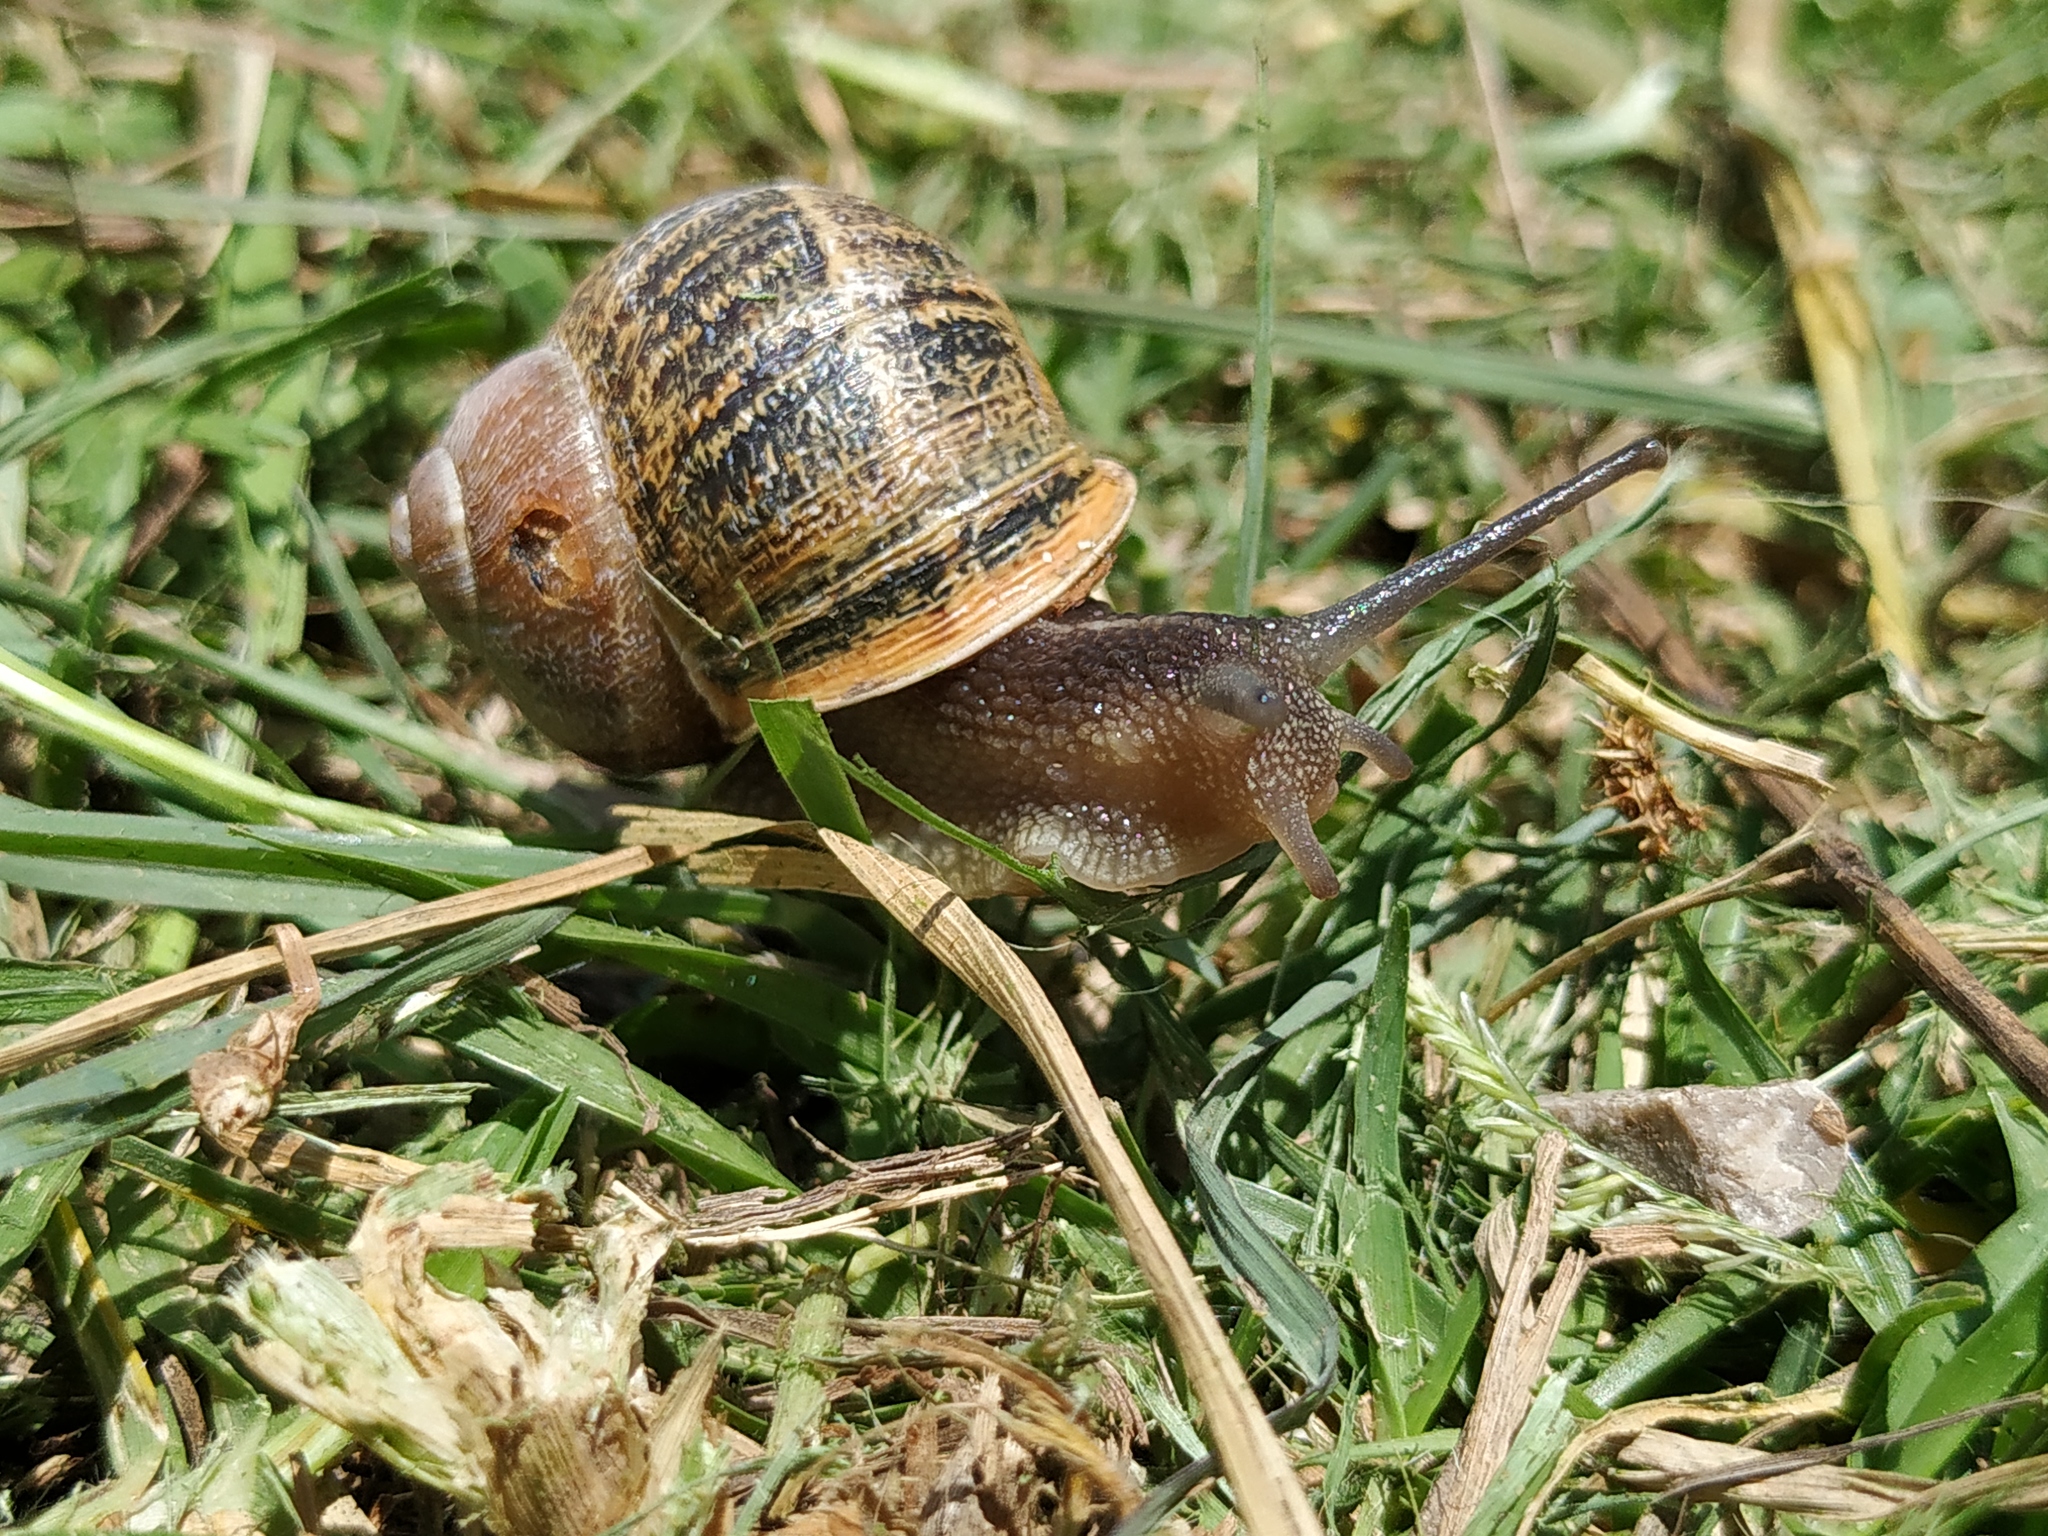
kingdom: Animalia
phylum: Mollusca
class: Gastropoda
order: Stylommatophora
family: Helicidae
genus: Cornu
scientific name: Cornu aspersum
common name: Brown garden snail
